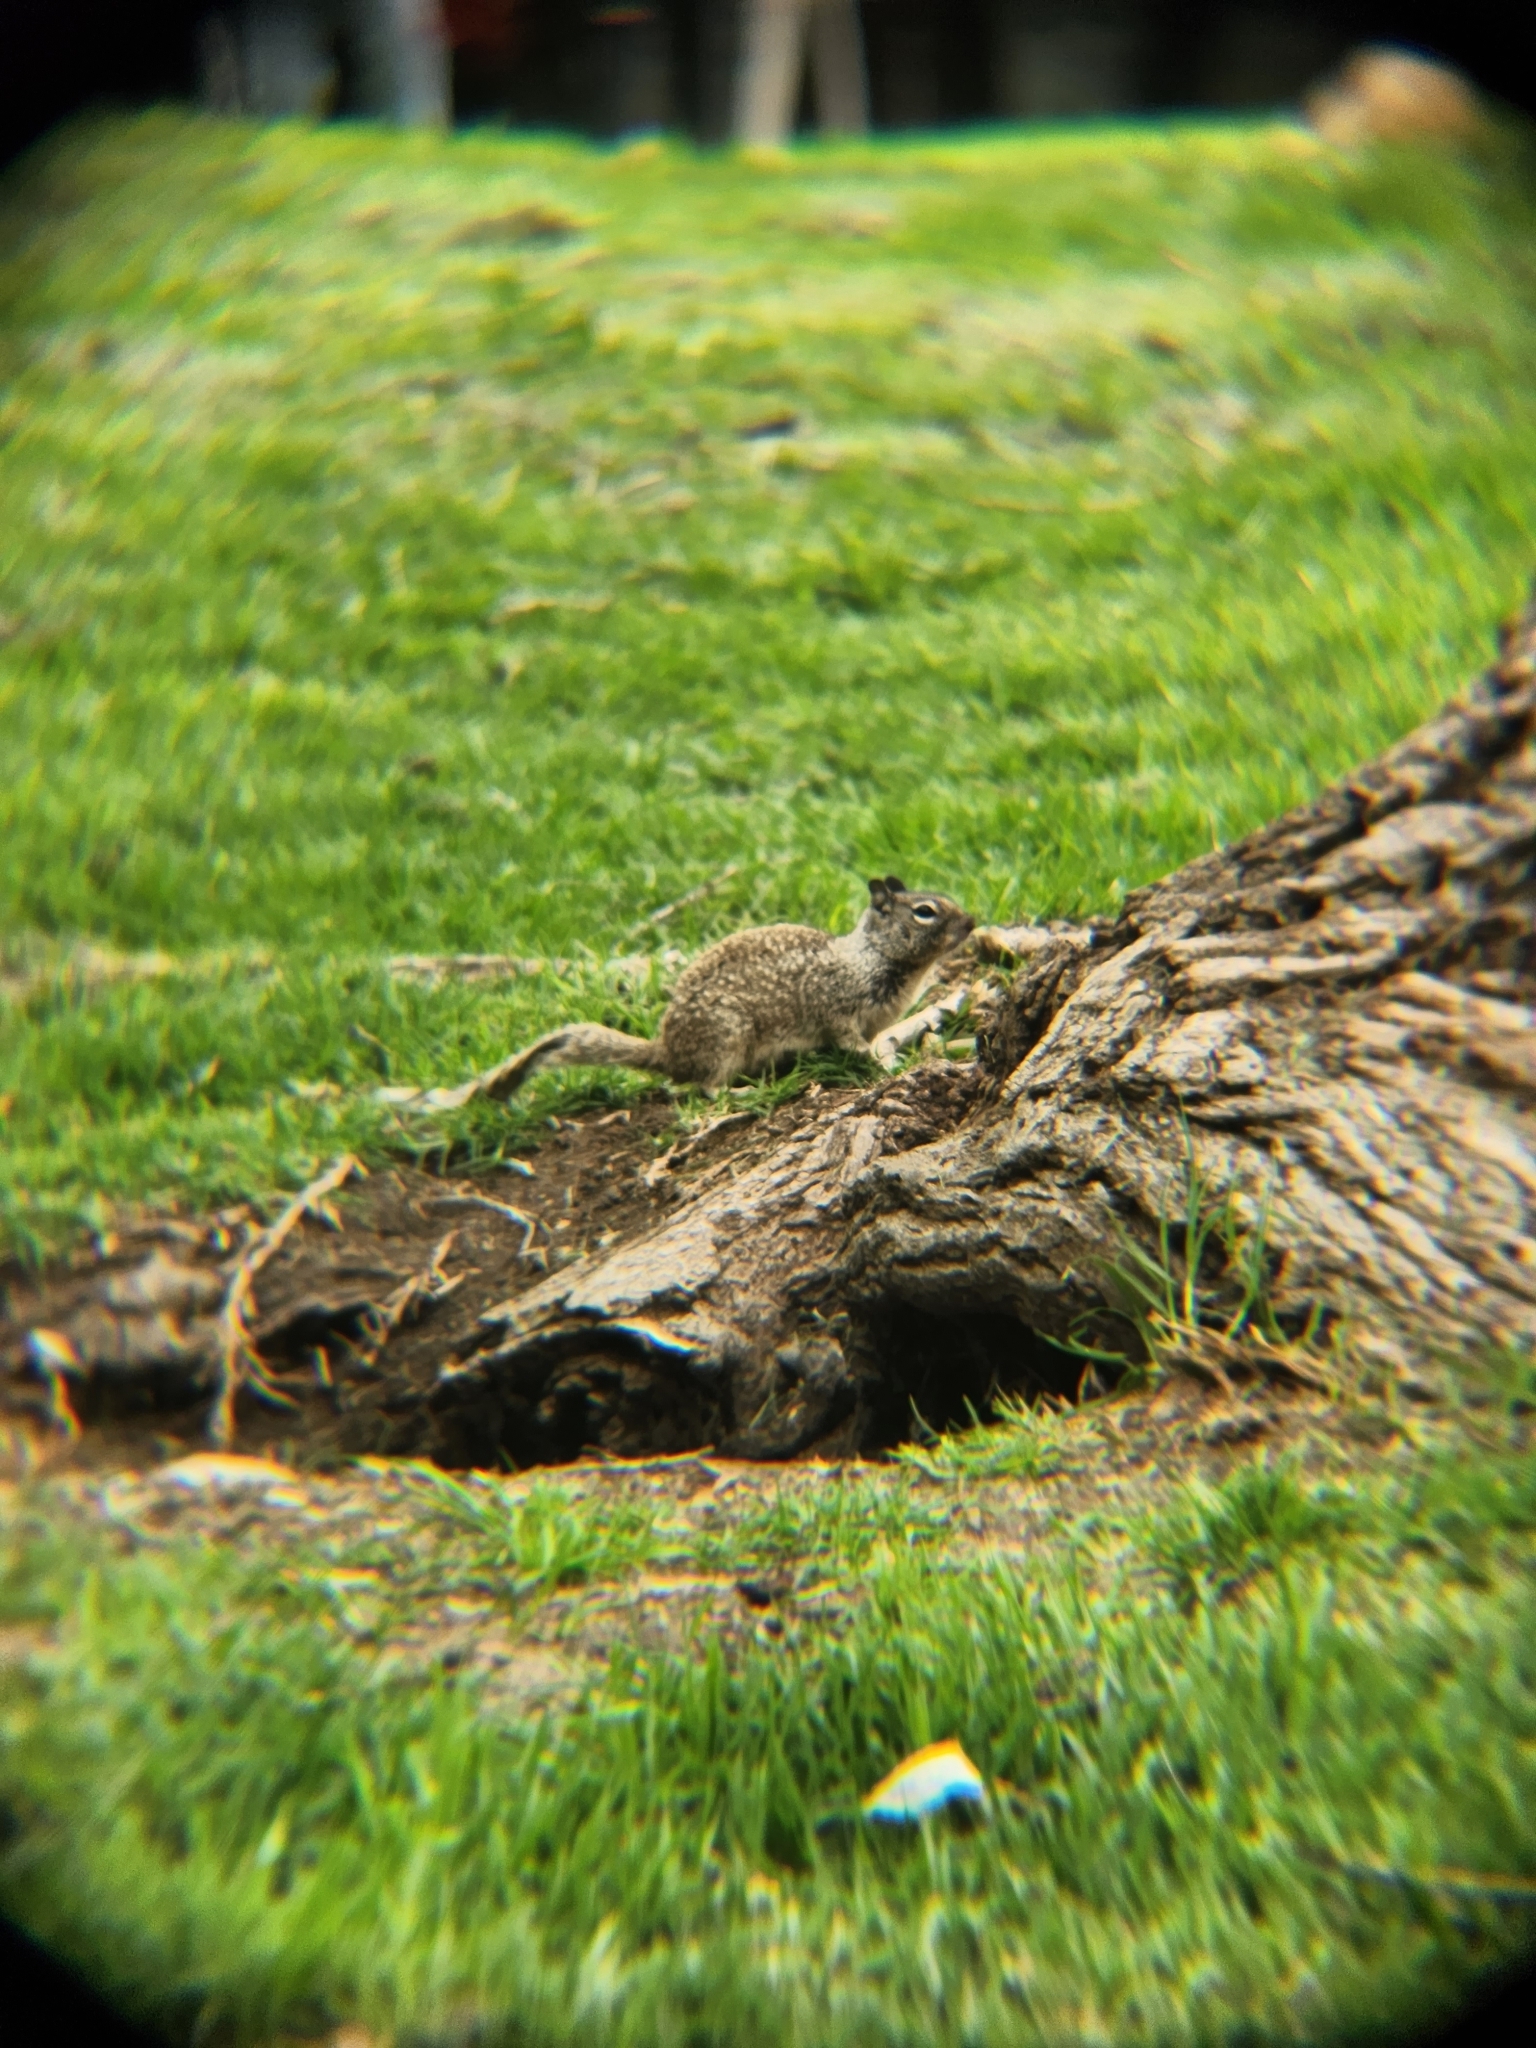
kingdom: Animalia
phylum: Chordata
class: Mammalia
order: Rodentia
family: Sciuridae
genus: Otospermophilus
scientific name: Otospermophilus beecheyi
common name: California ground squirrel
